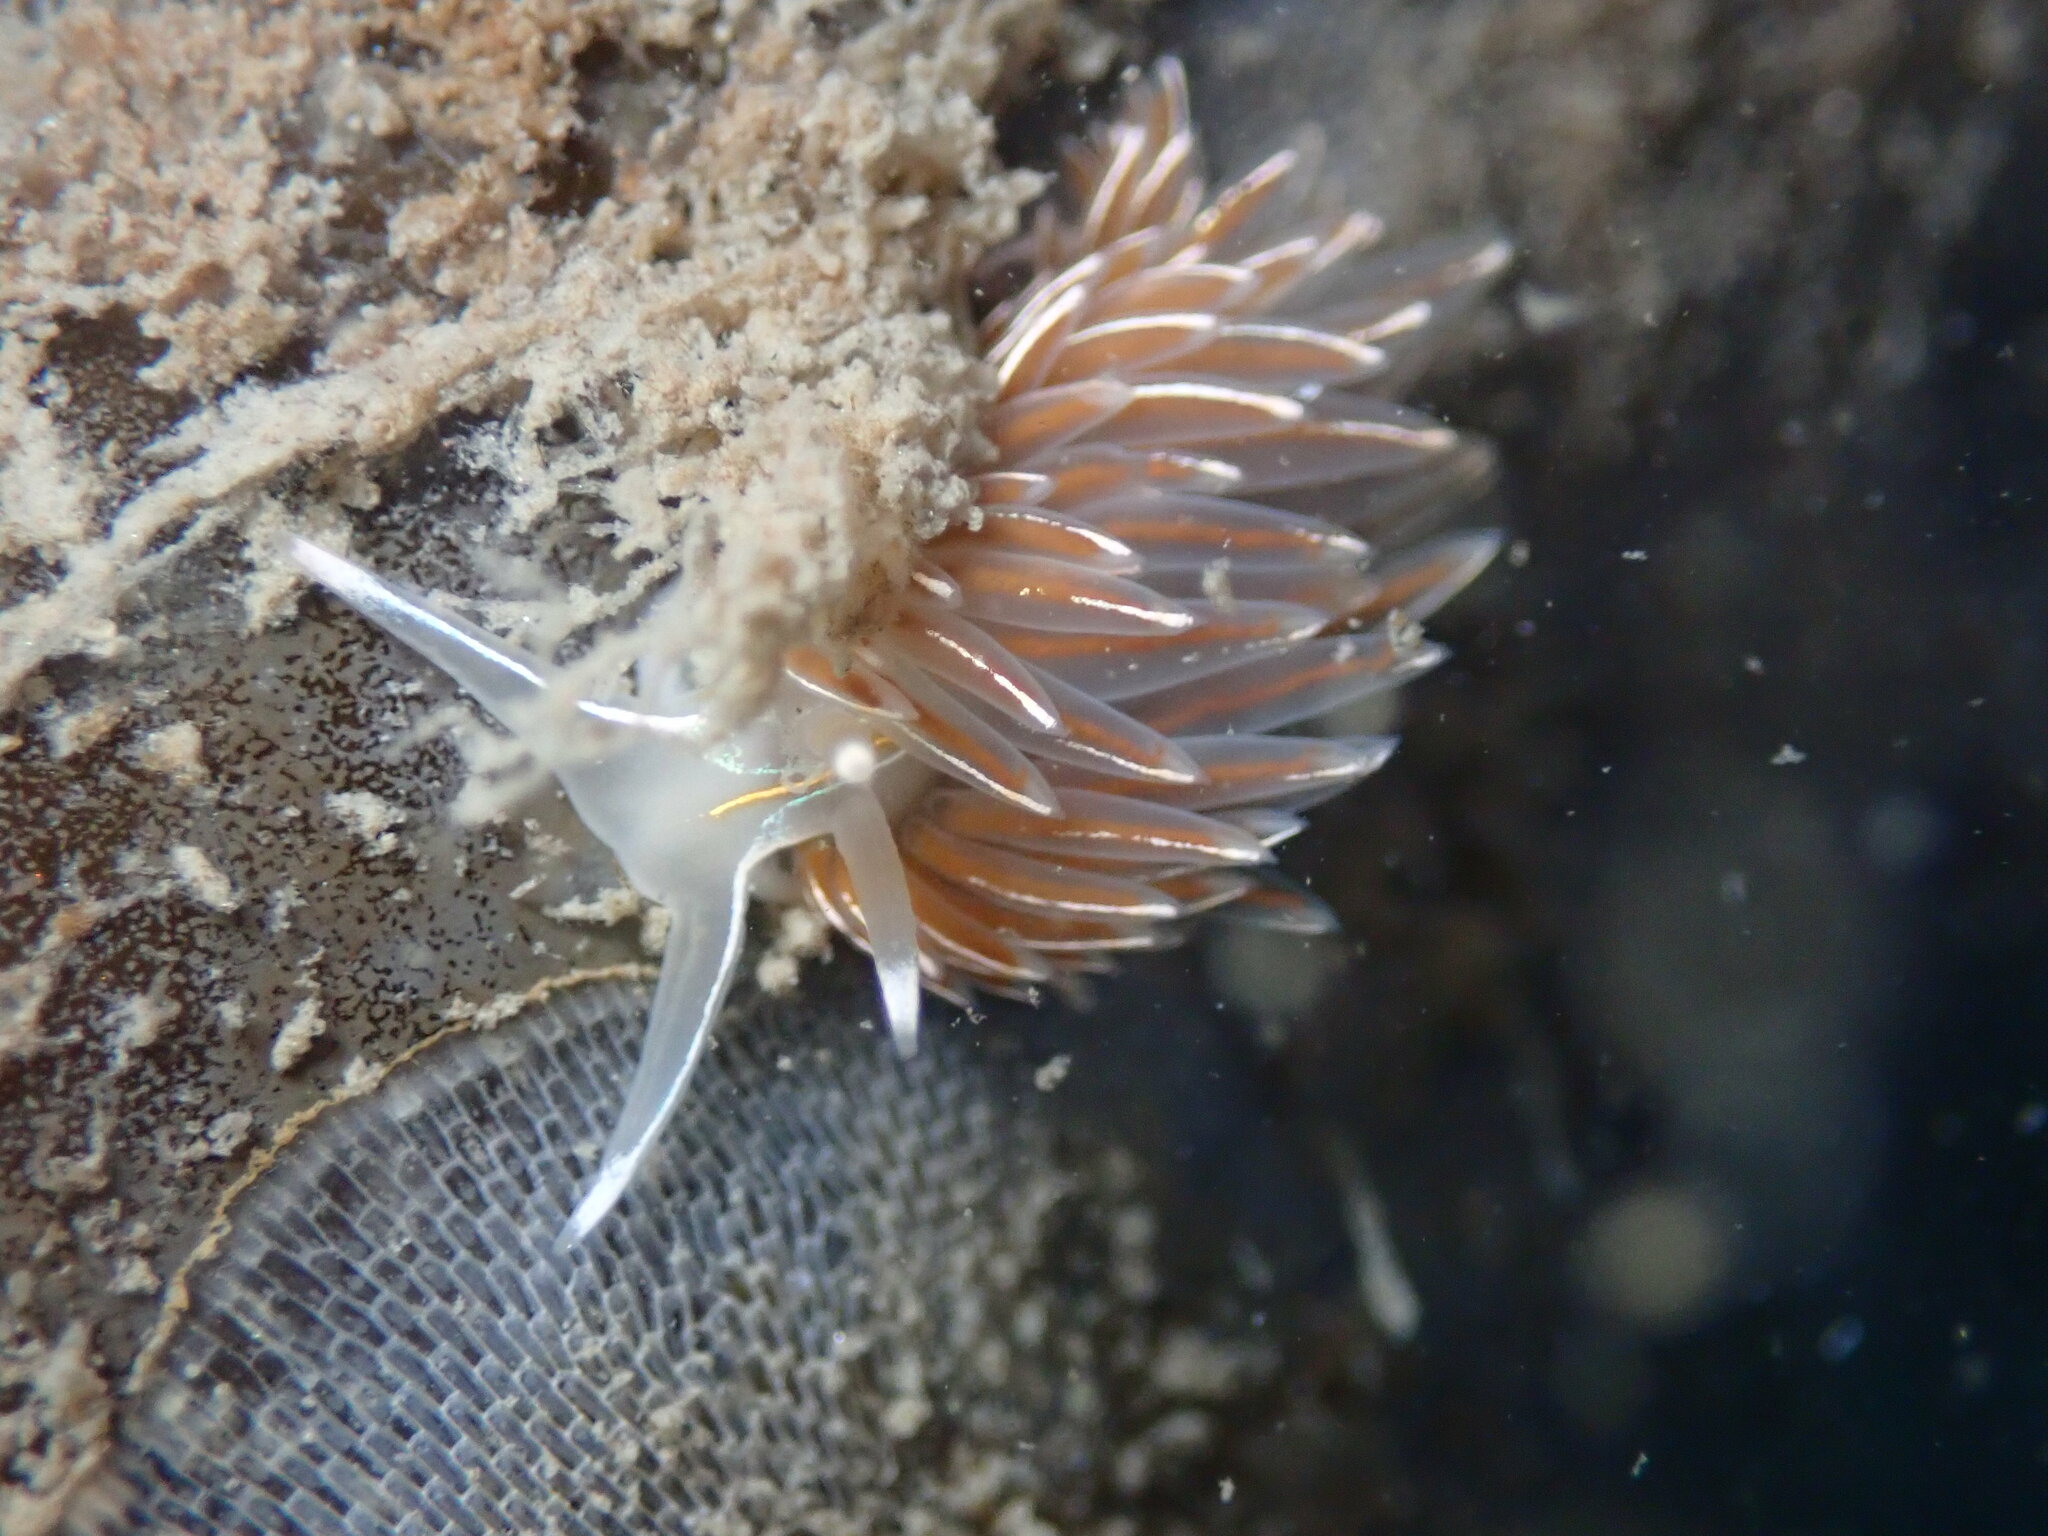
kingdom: Animalia
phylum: Mollusca
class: Gastropoda
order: Nudibranchia
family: Myrrhinidae
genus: Hermissenda
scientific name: Hermissenda crassicornis
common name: Hermissenda
